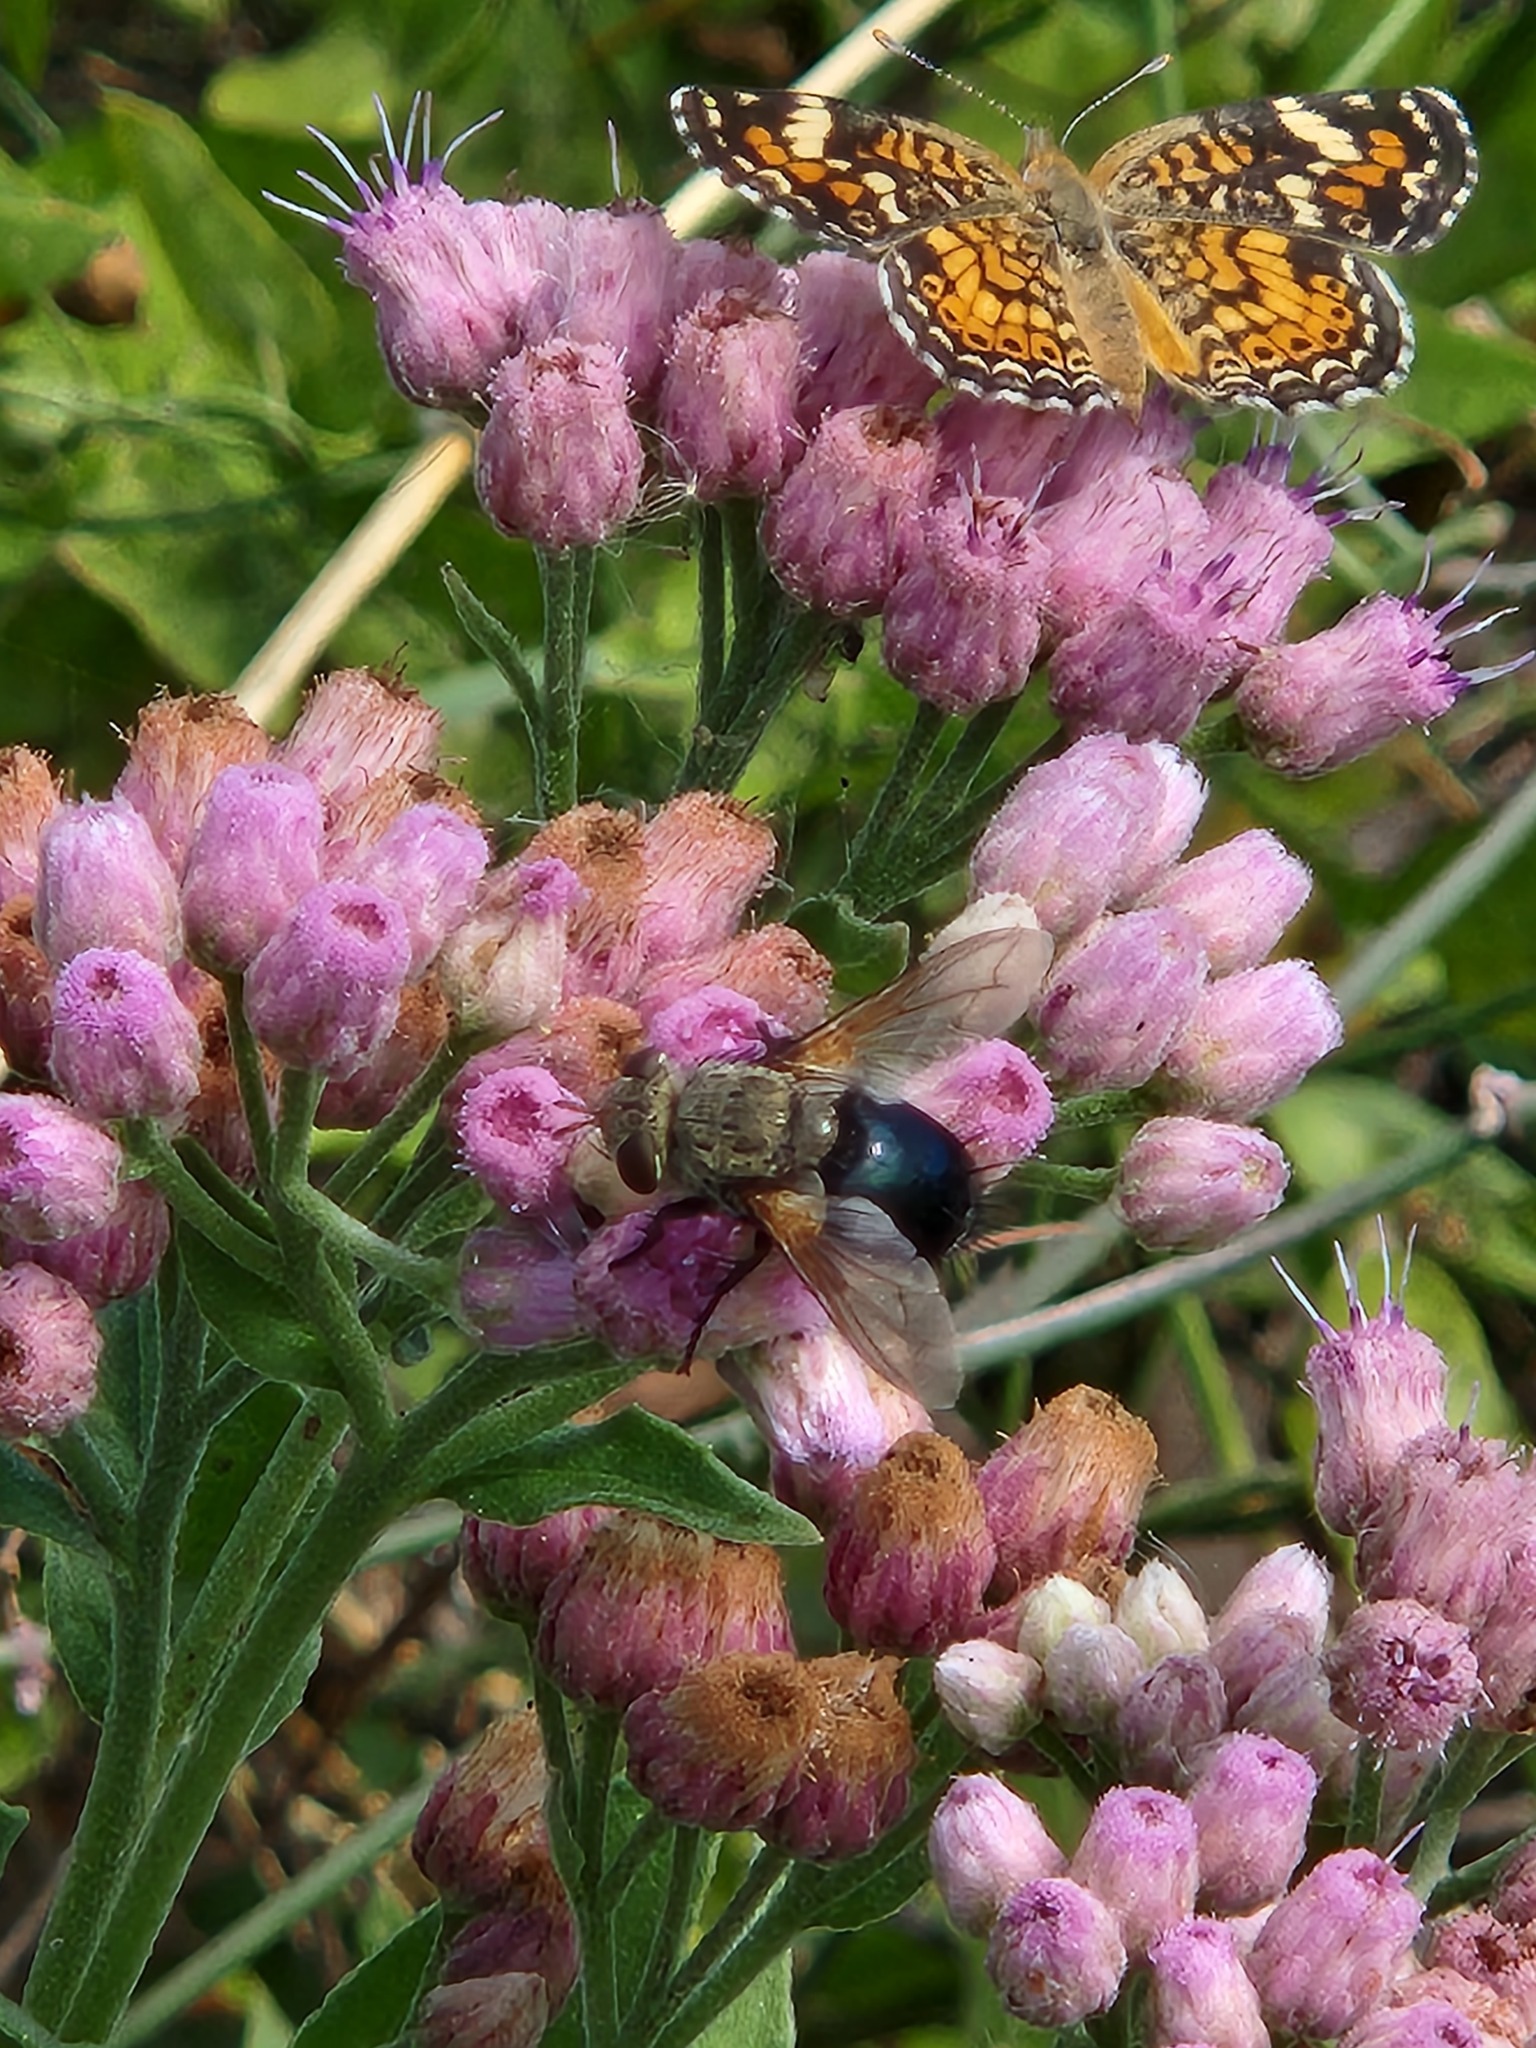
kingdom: Animalia
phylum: Arthropoda
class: Insecta
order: Lepidoptera
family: Nymphalidae
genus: Phyciodes
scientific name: Phyciodes phaon
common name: Phaon crescent
